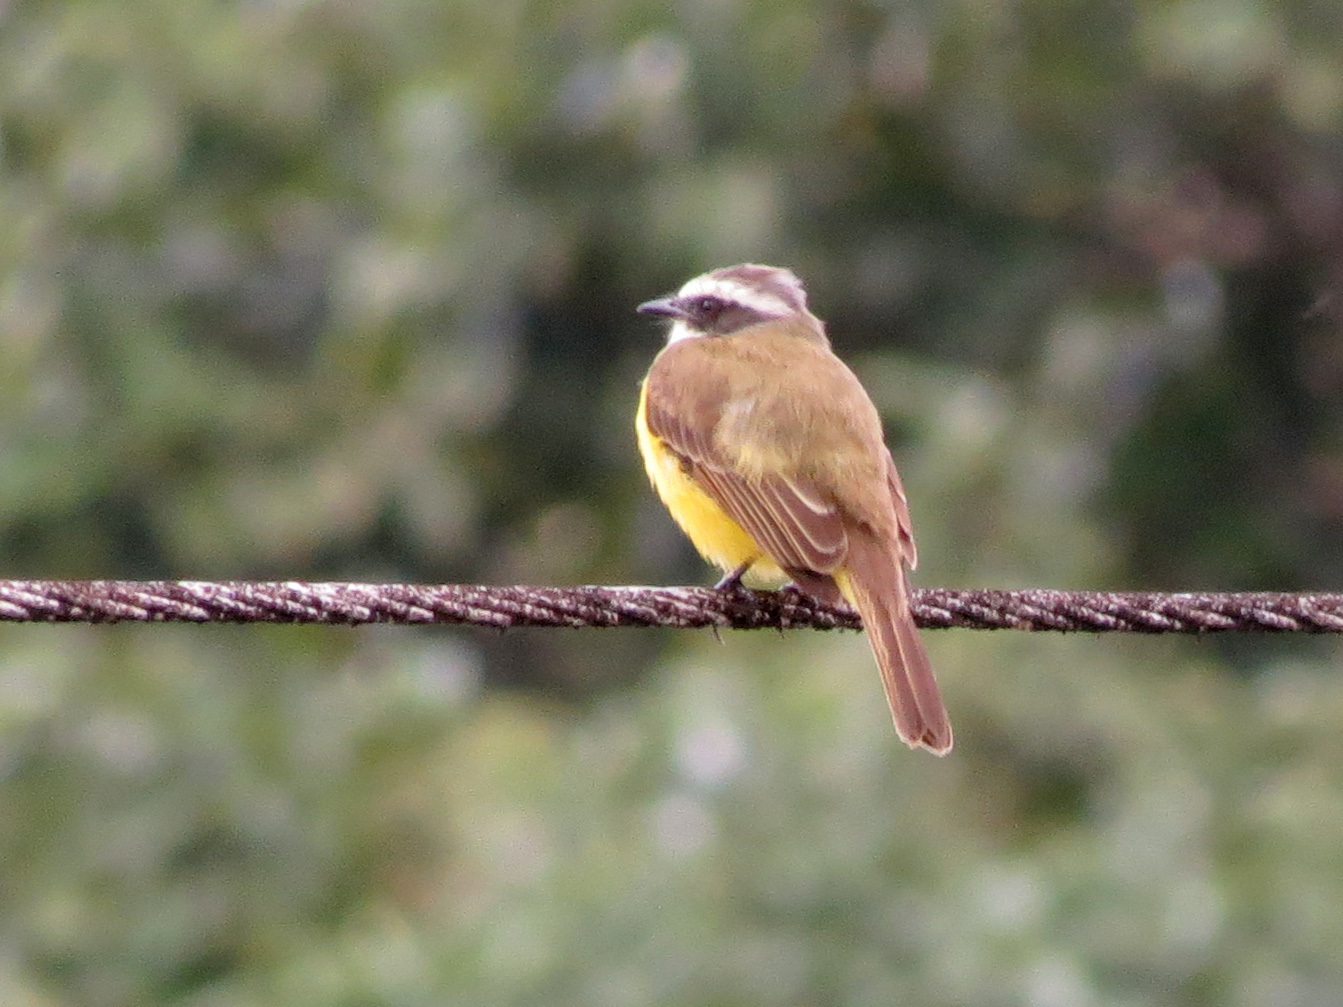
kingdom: Animalia
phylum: Chordata
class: Aves
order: Passeriformes
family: Tyrannidae
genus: Myiozetetes
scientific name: Myiozetetes similis
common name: Social flycatcher
